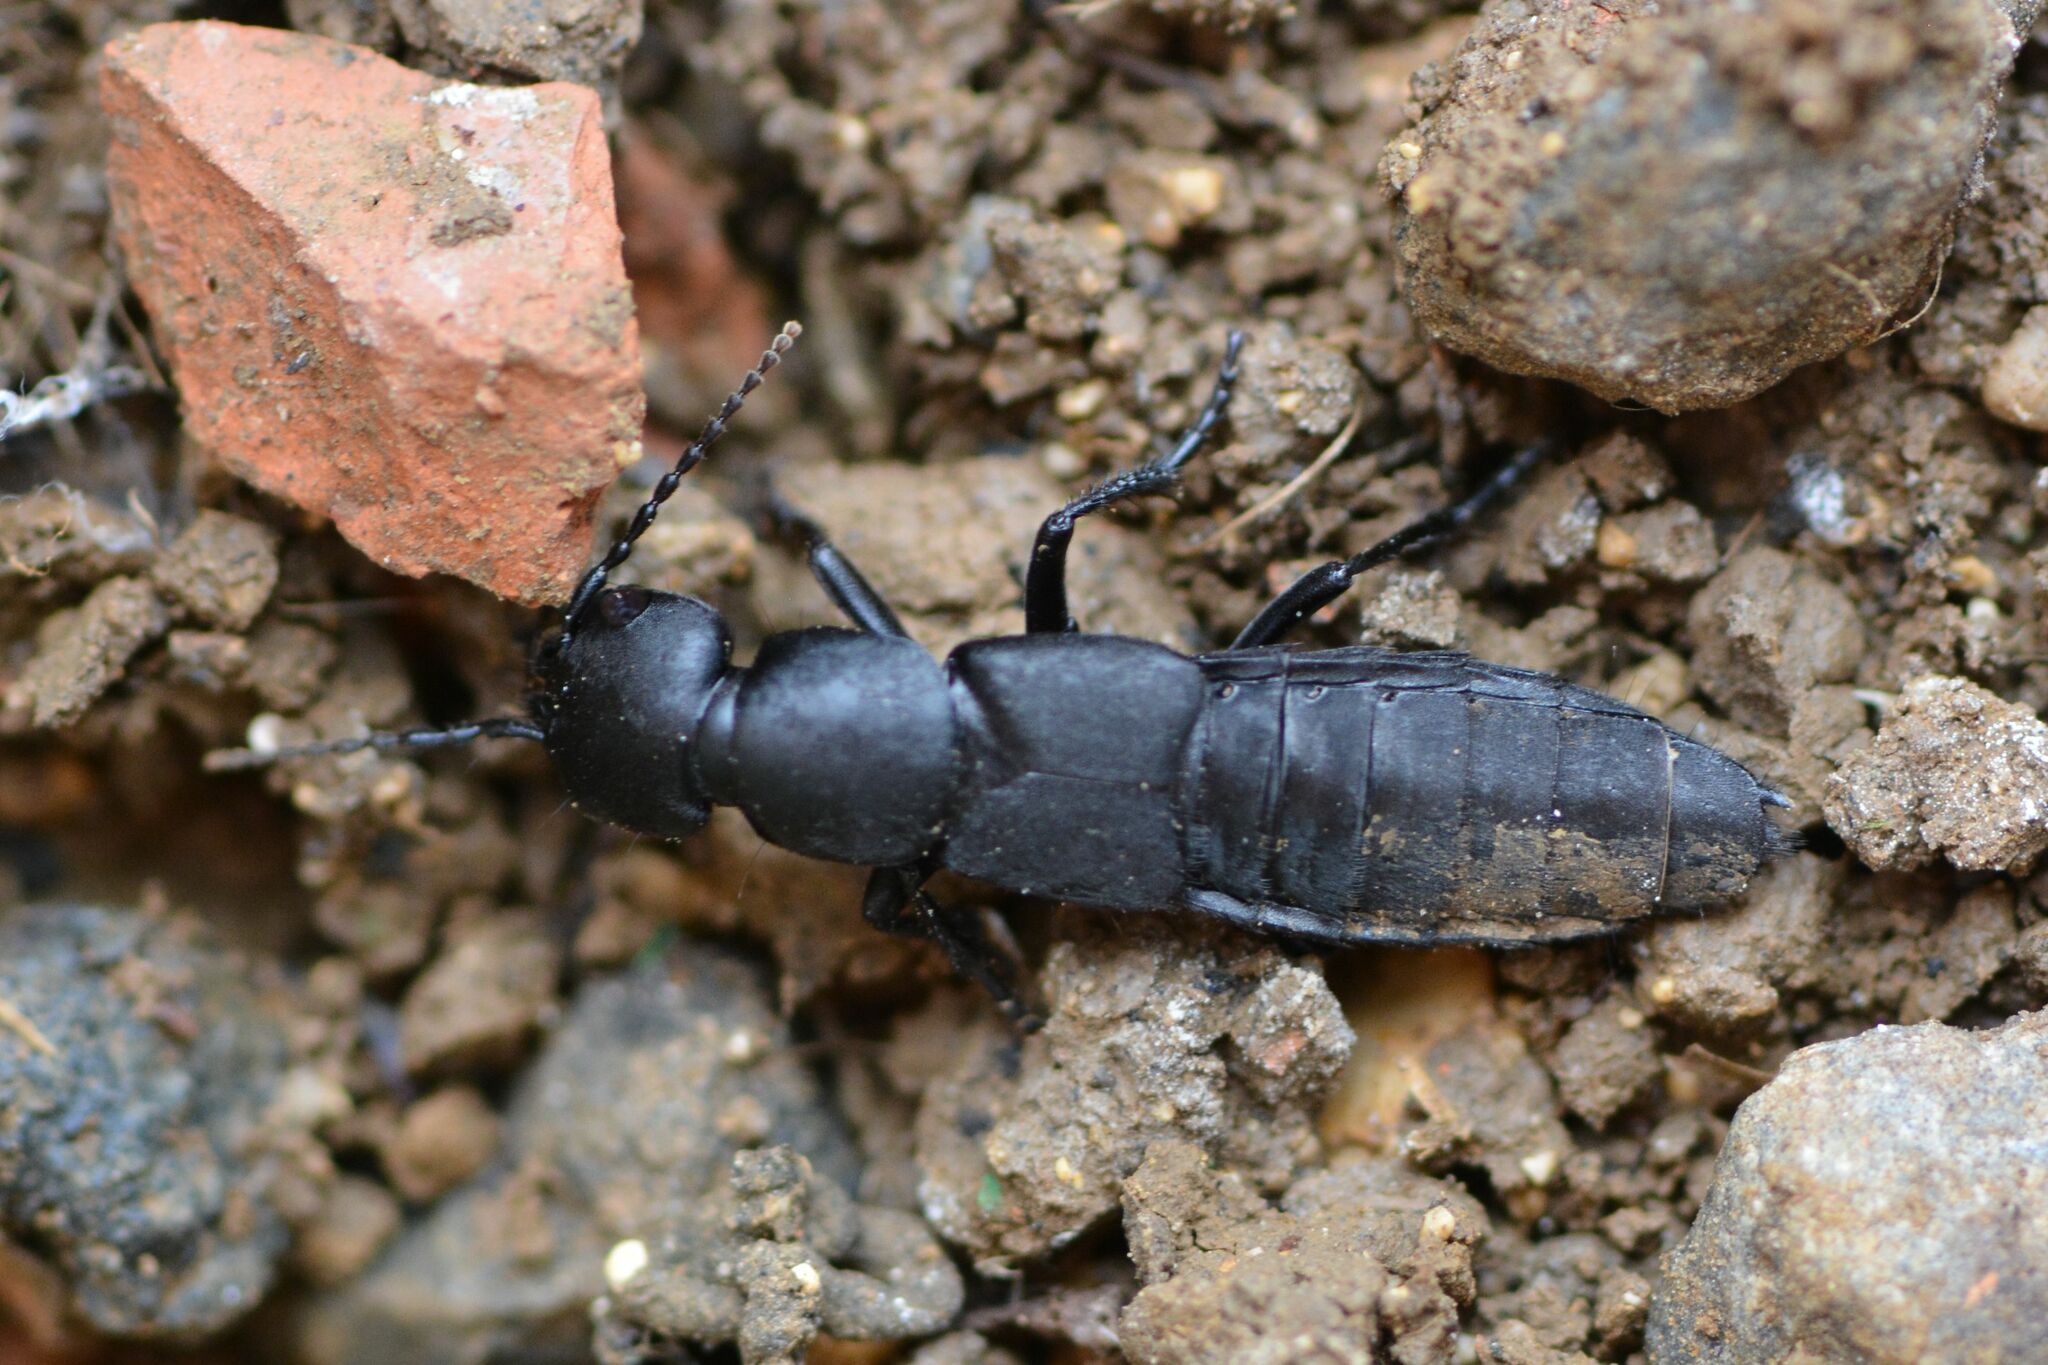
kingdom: Animalia
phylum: Arthropoda
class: Insecta
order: Coleoptera
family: Staphylinidae
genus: Ocypus
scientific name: Ocypus olens
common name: Devil's coach-horse
